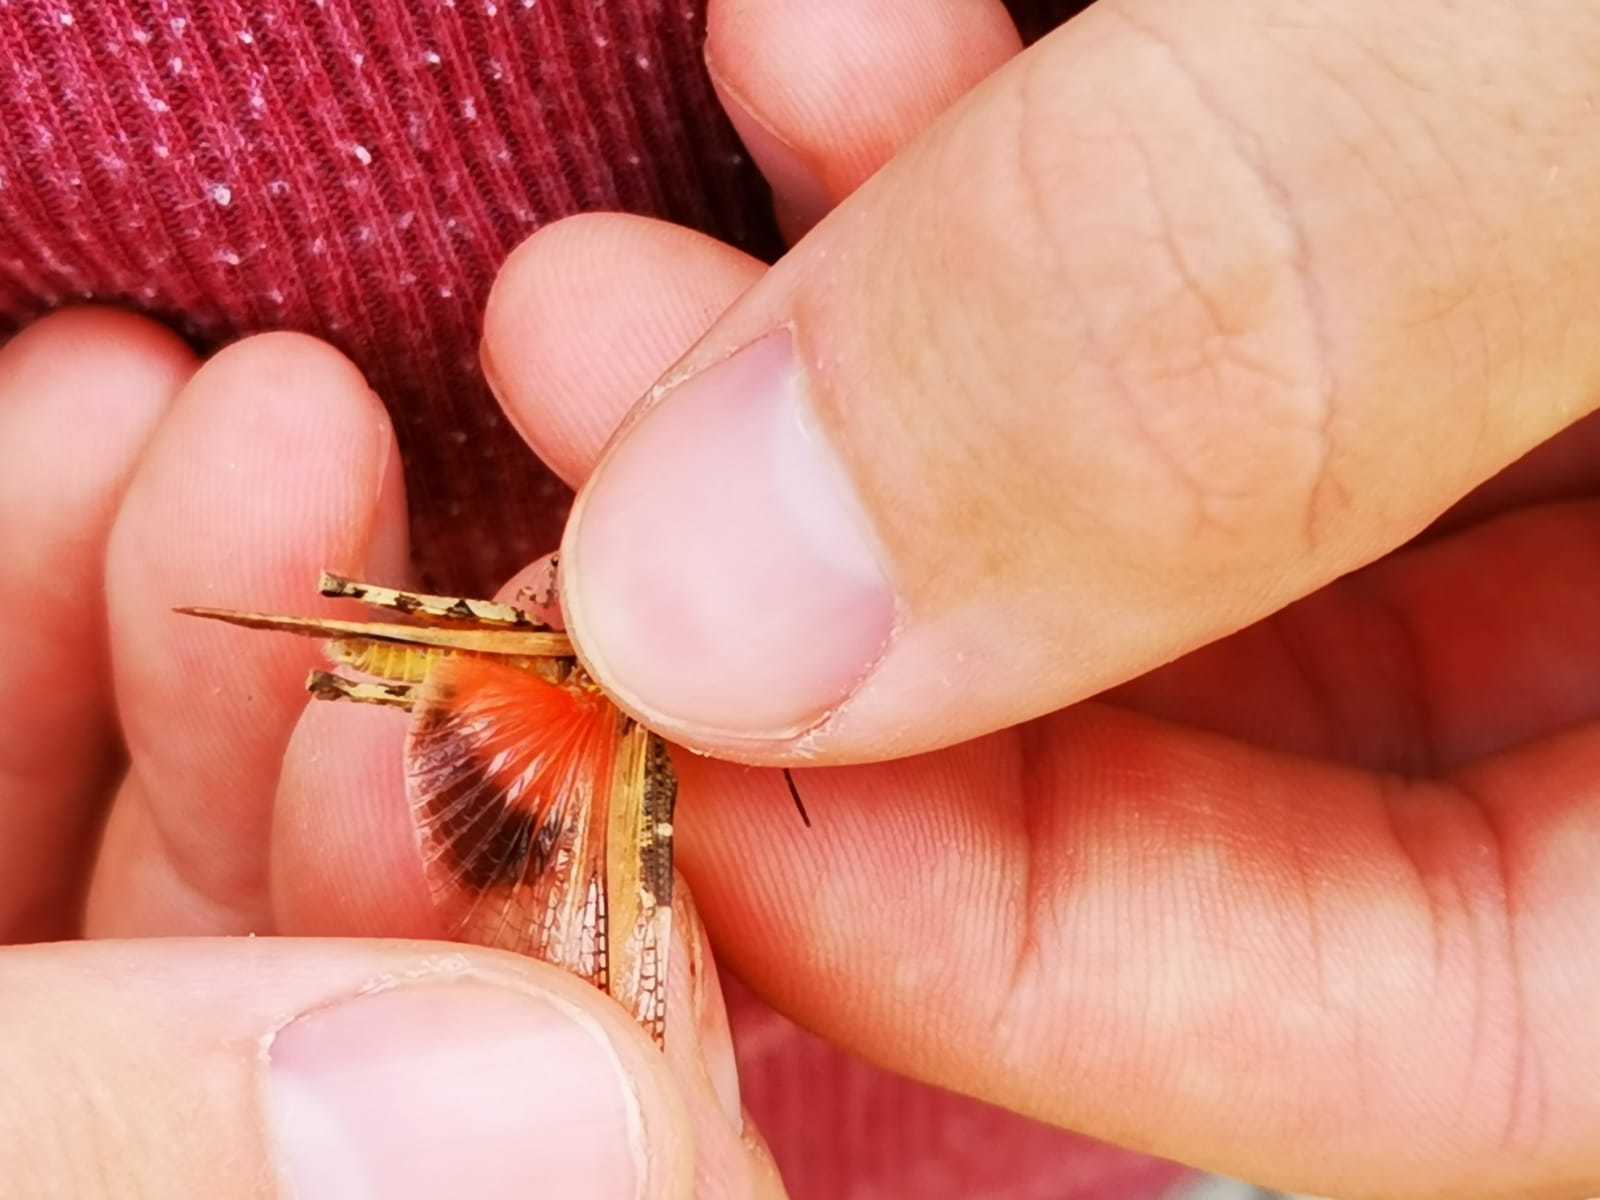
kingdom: Animalia
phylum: Arthropoda
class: Insecta
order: Orthoptera
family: Acrididae
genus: Acrotylus
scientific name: Acrotylus patruelis
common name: Slender burrowing grasshopper
